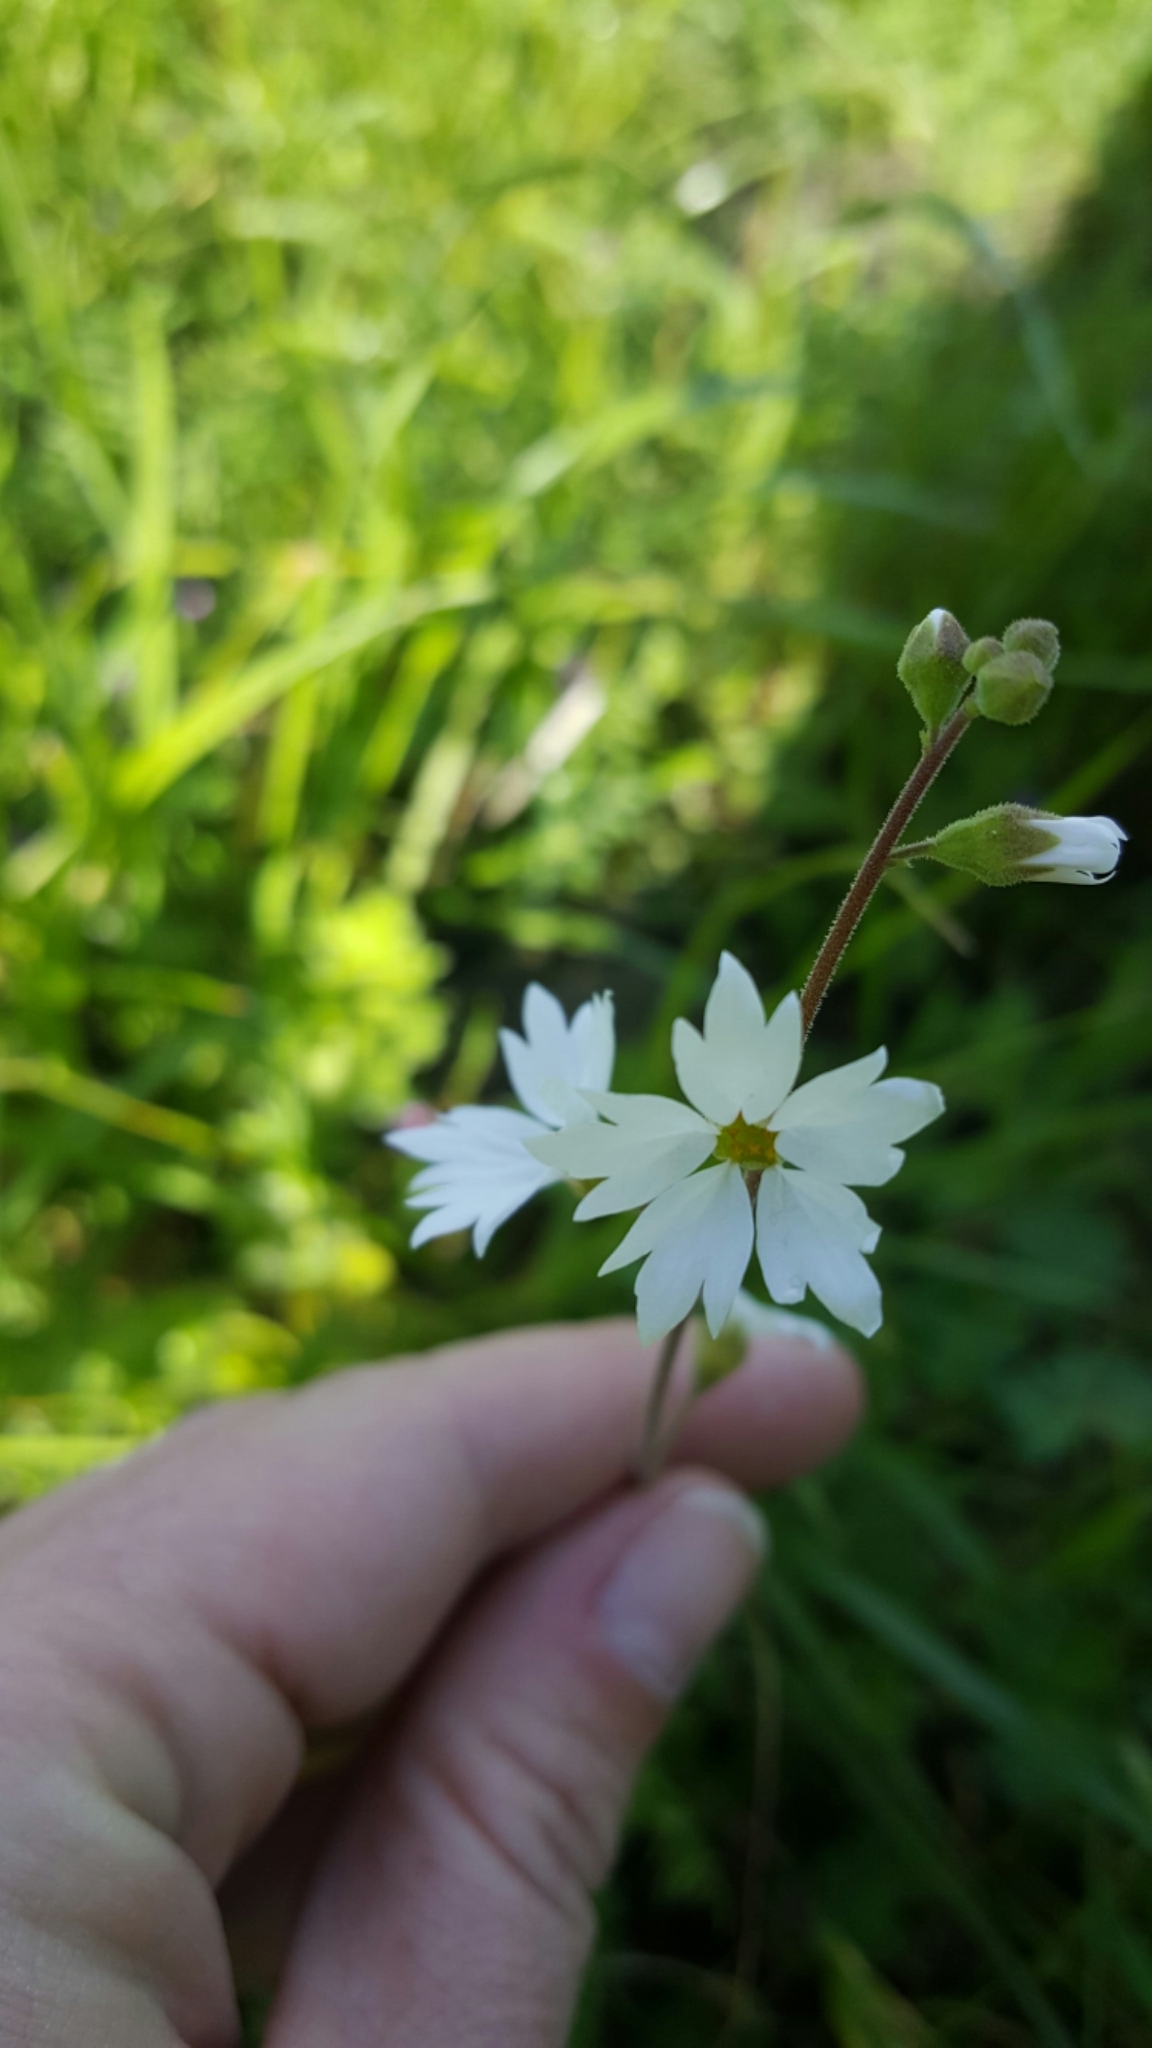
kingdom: Plantae
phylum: Tracheophyta
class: Magnoliopsida
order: Saxifragales
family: Saxifragaceae
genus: Lithophragma
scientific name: Lithophragma affine
